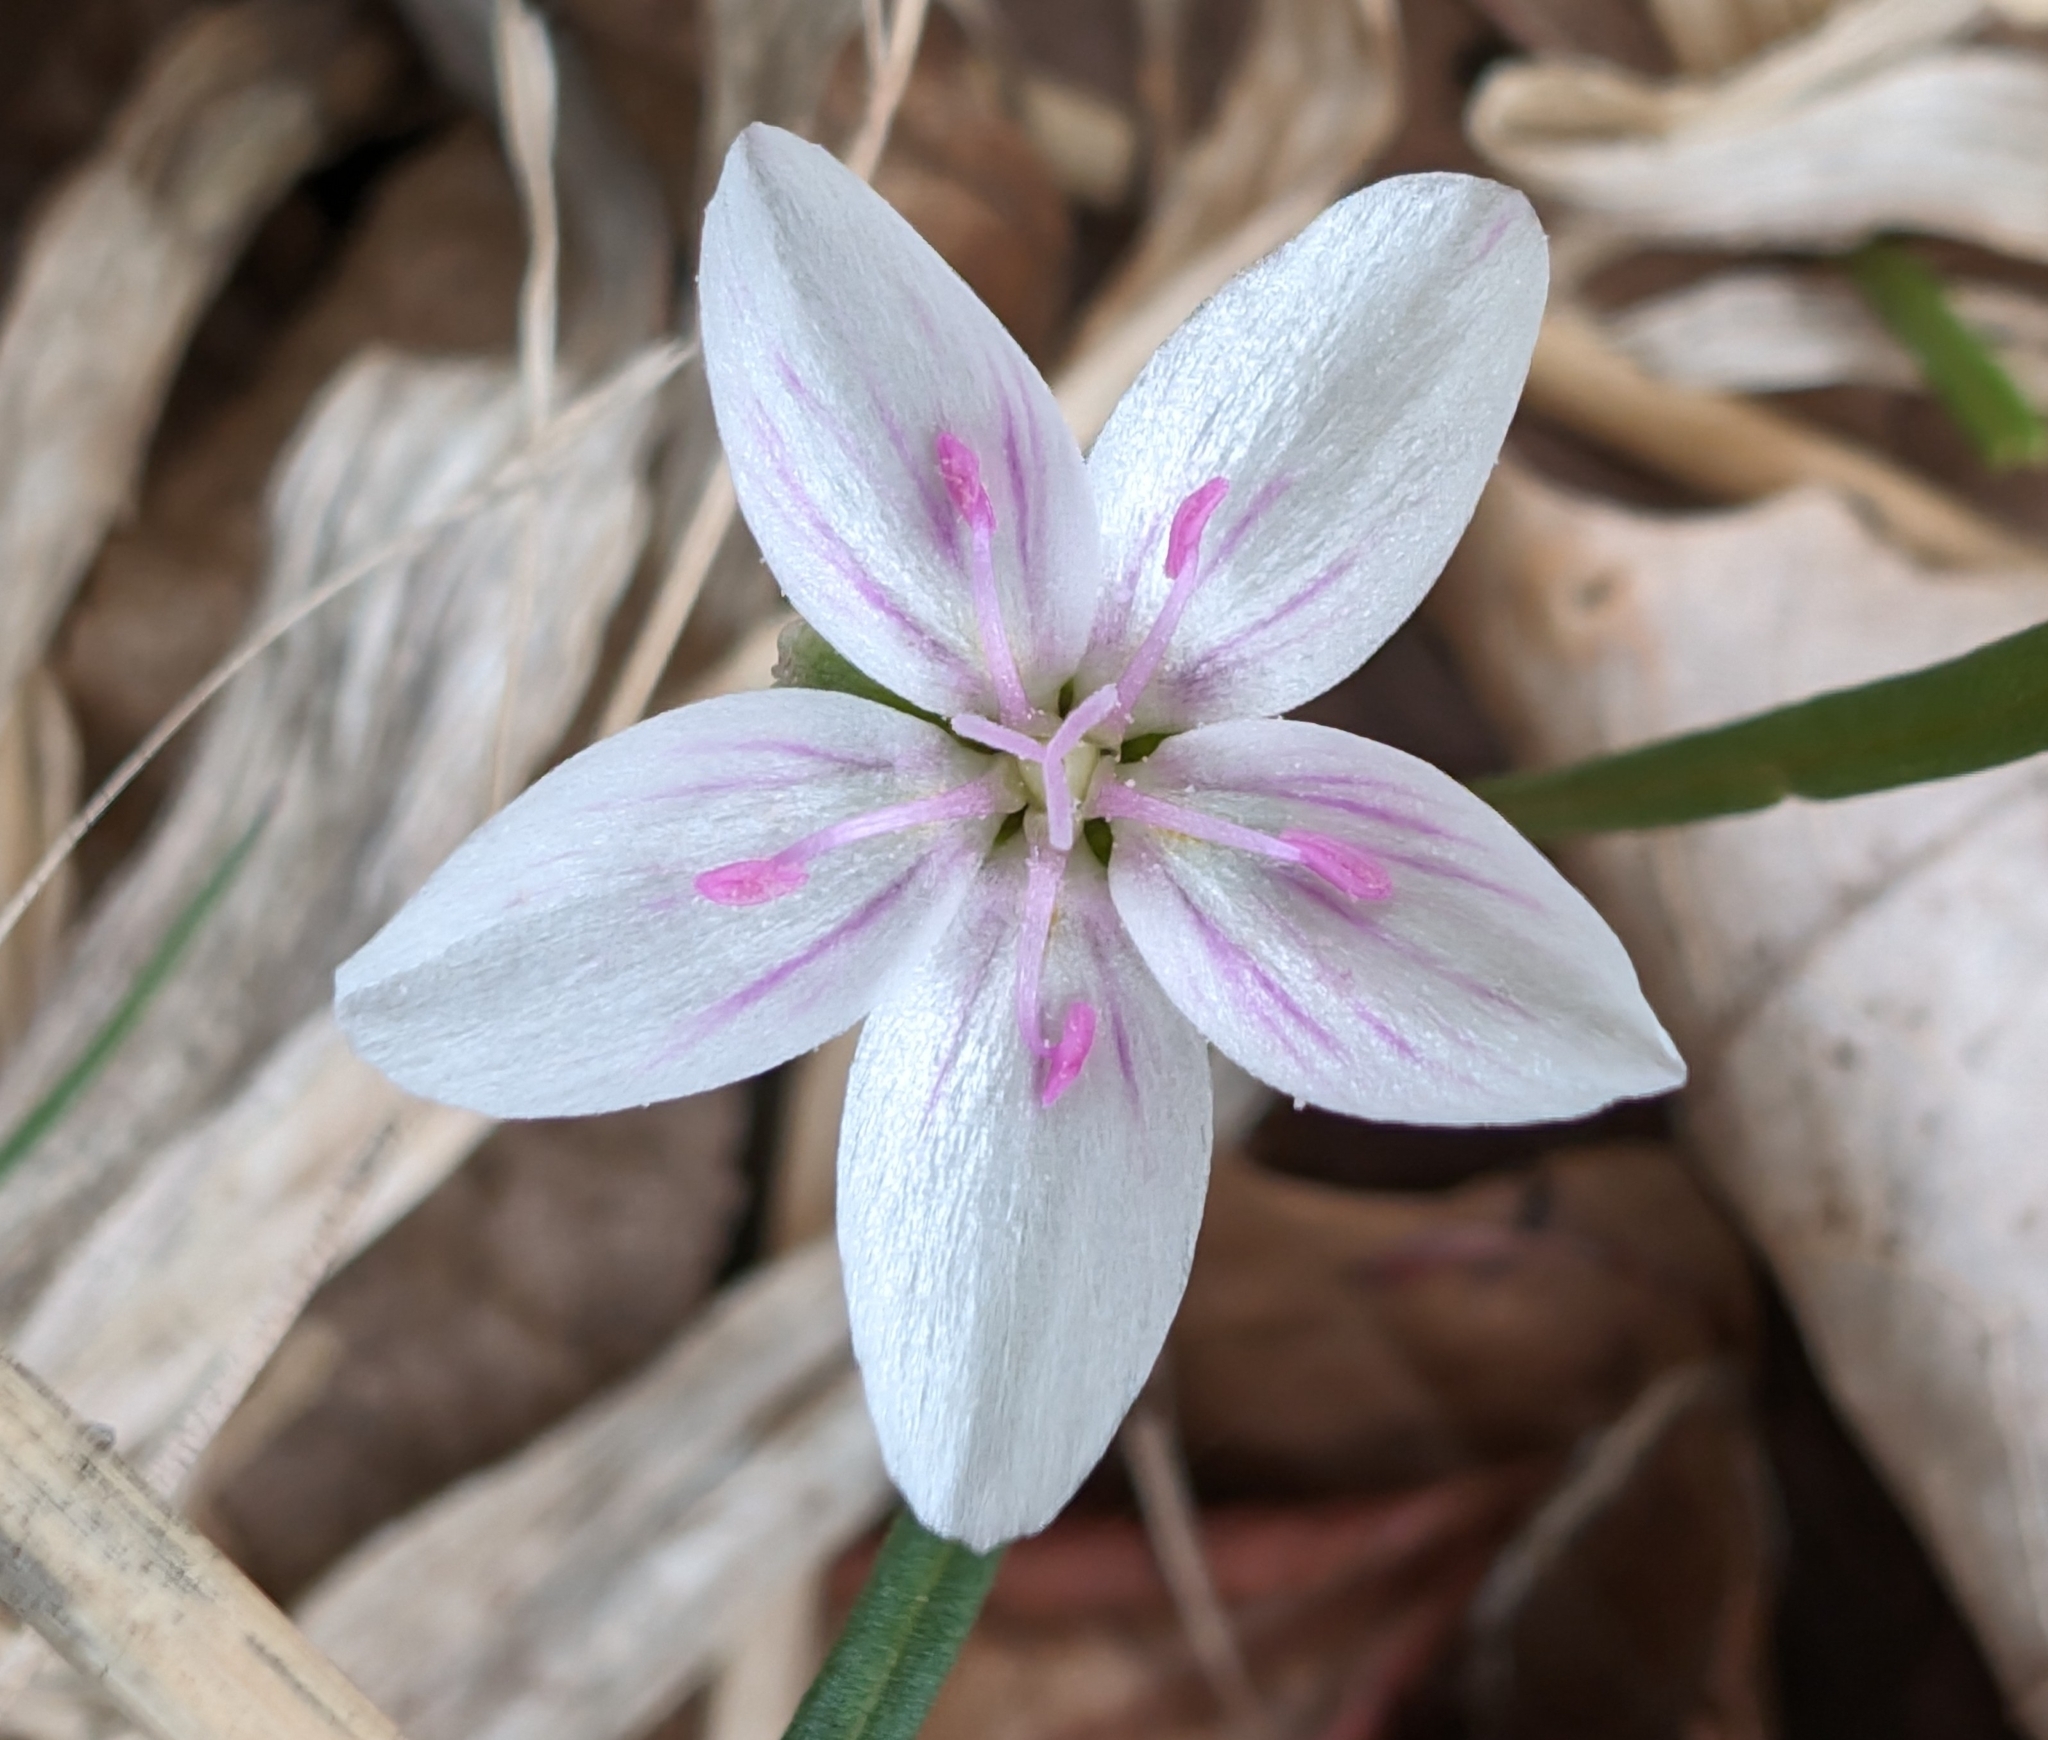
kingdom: Plantae
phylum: Tracheophyta
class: Magnoliopsida
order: Caryophyllales
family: Montiaceae
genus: Claytonia
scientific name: Claytonia virginica
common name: Virginia springbeauty
